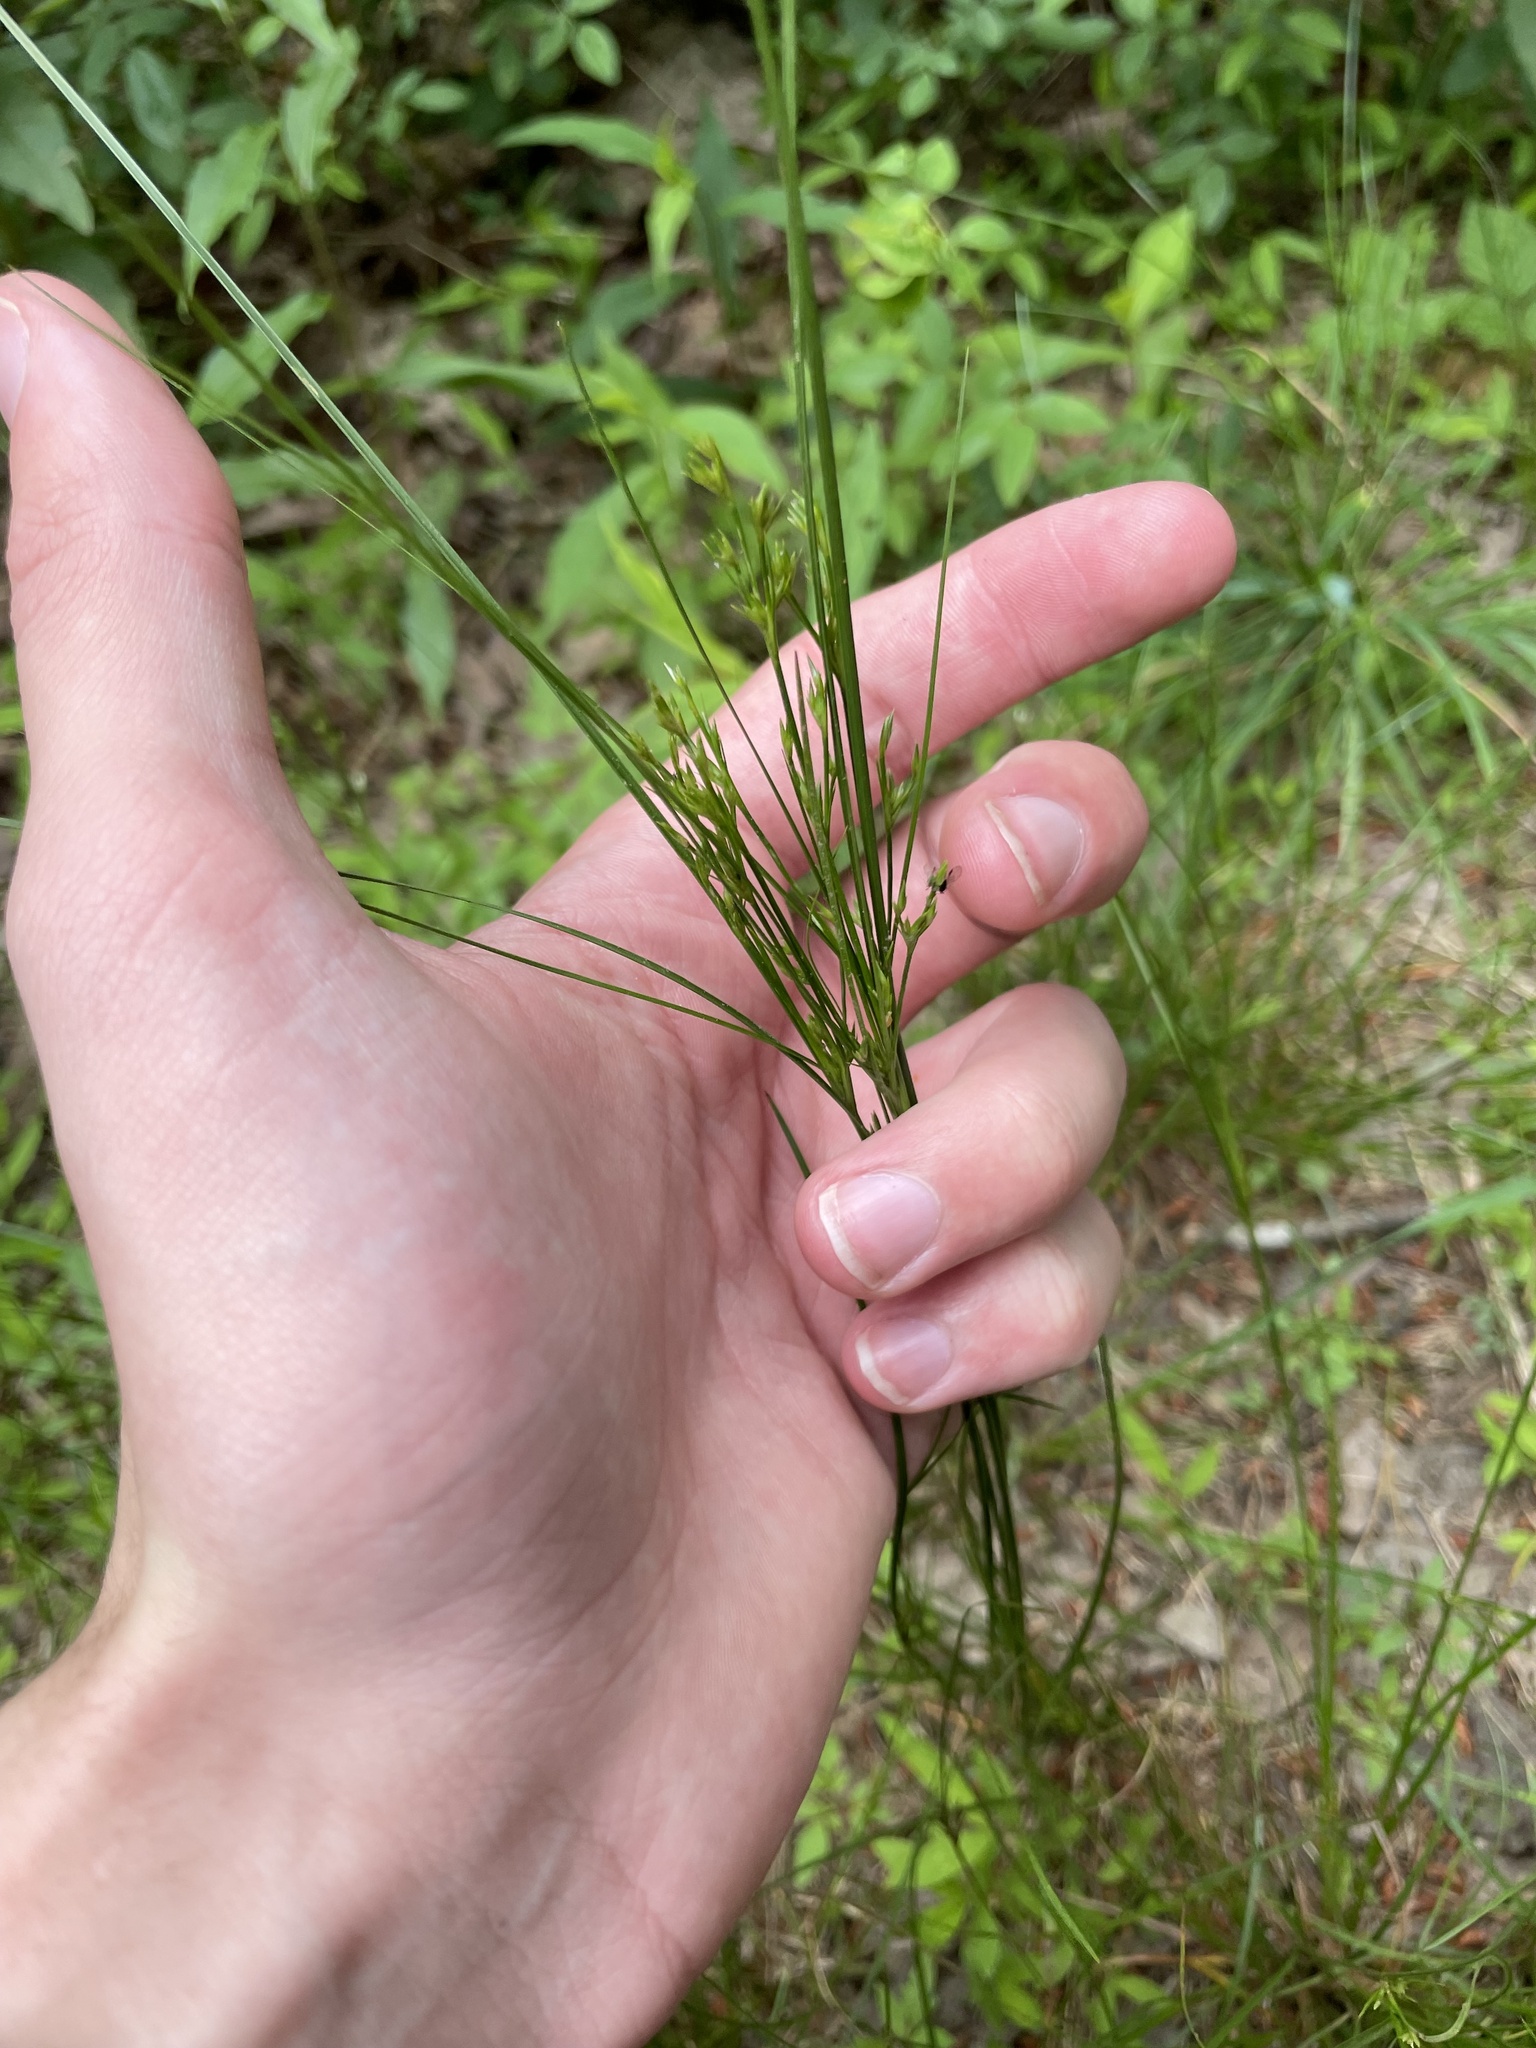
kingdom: Plantae
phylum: Tracheophyta
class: Liliopsida
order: Poales
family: Juncaceae
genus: Juncus
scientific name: Juncus tenuis
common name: Slender rush
